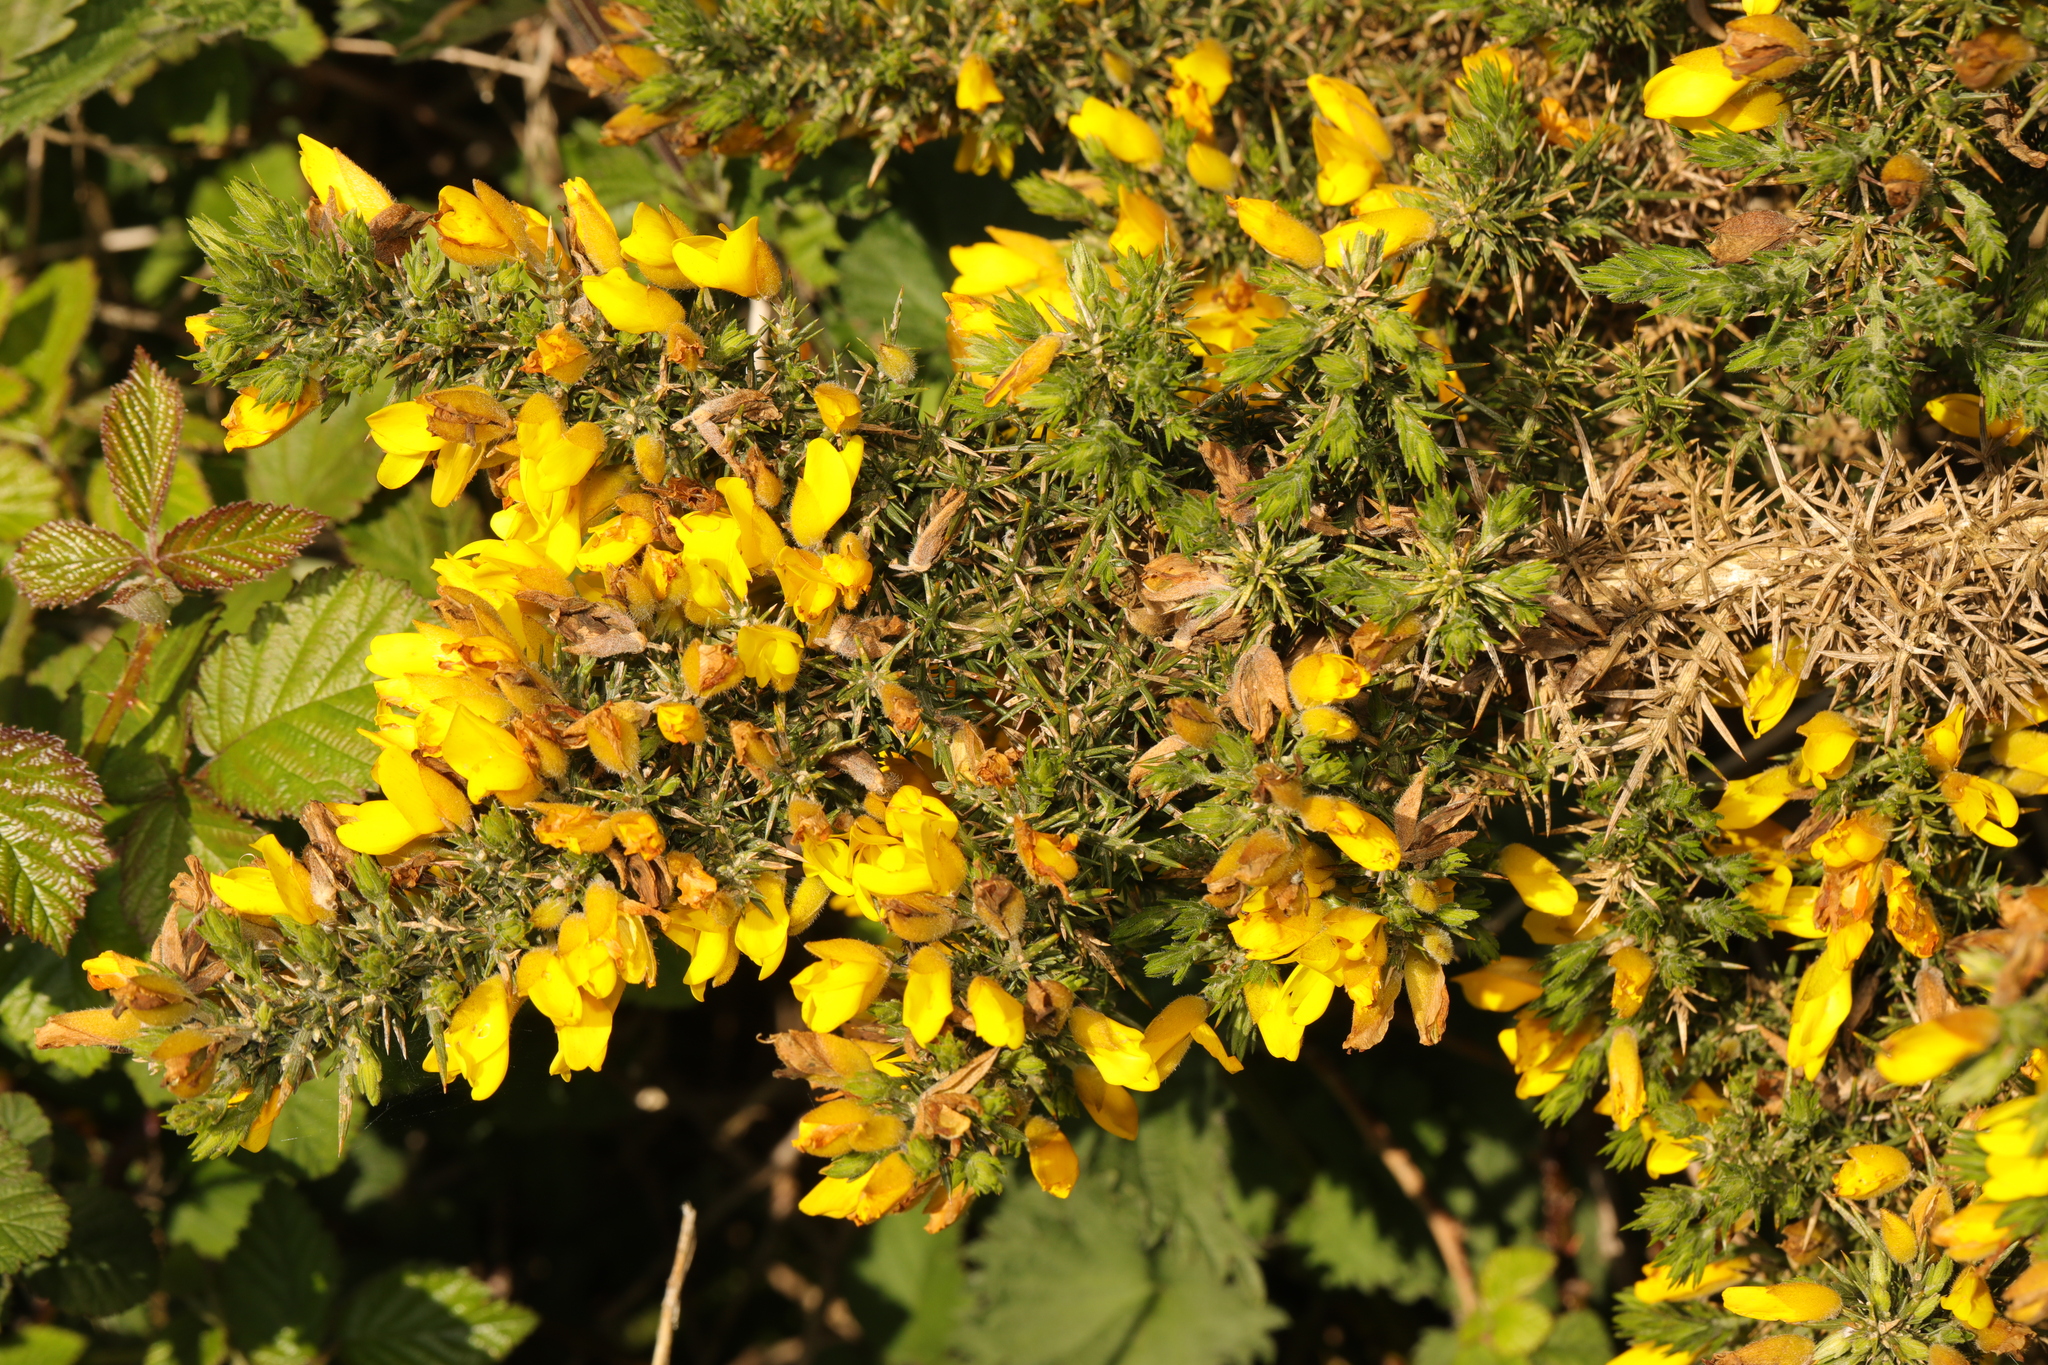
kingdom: Plantae
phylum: Tracheophyta
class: Magnoliopsida
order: Fabales
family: Fabaceae
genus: Ulex
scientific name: Ulex europaeus
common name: Common gorse
